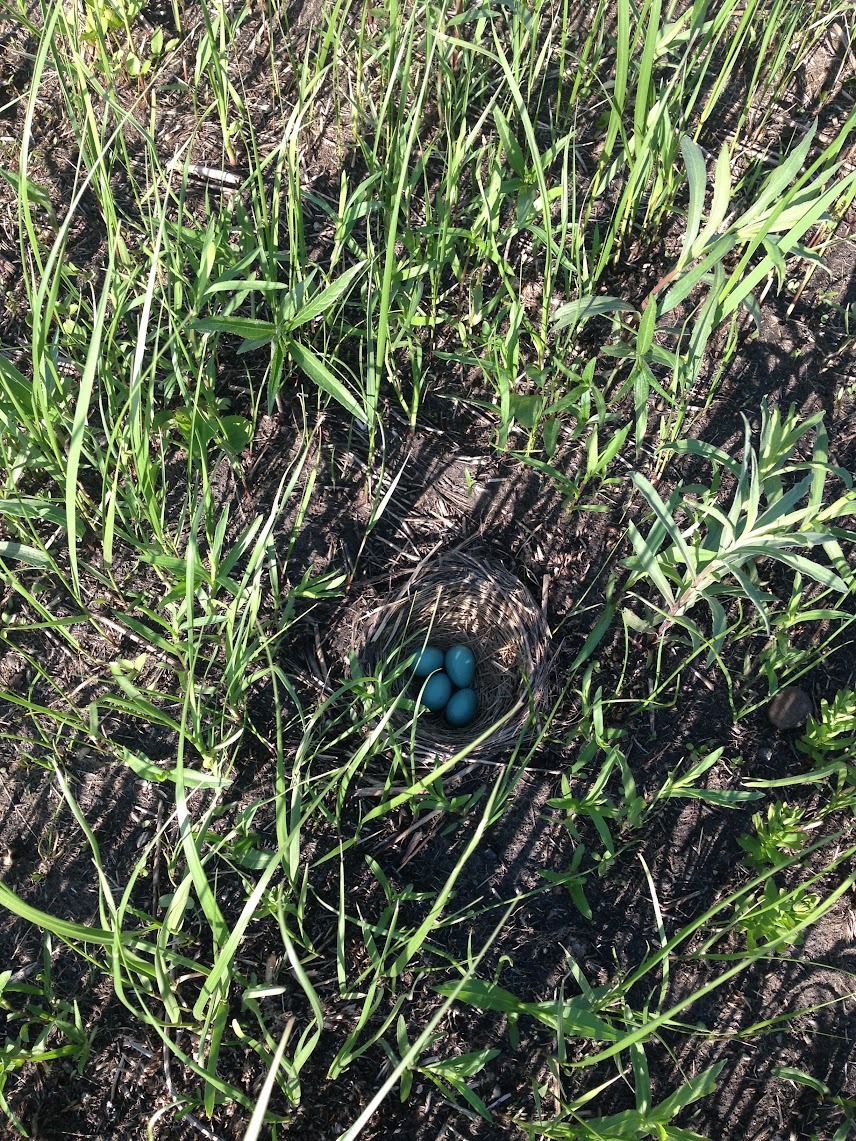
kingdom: Animalia
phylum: Chordata
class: Aves
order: Passeriformes
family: Turdidae
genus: Turdus
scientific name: Turdus migratorius
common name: American robin
